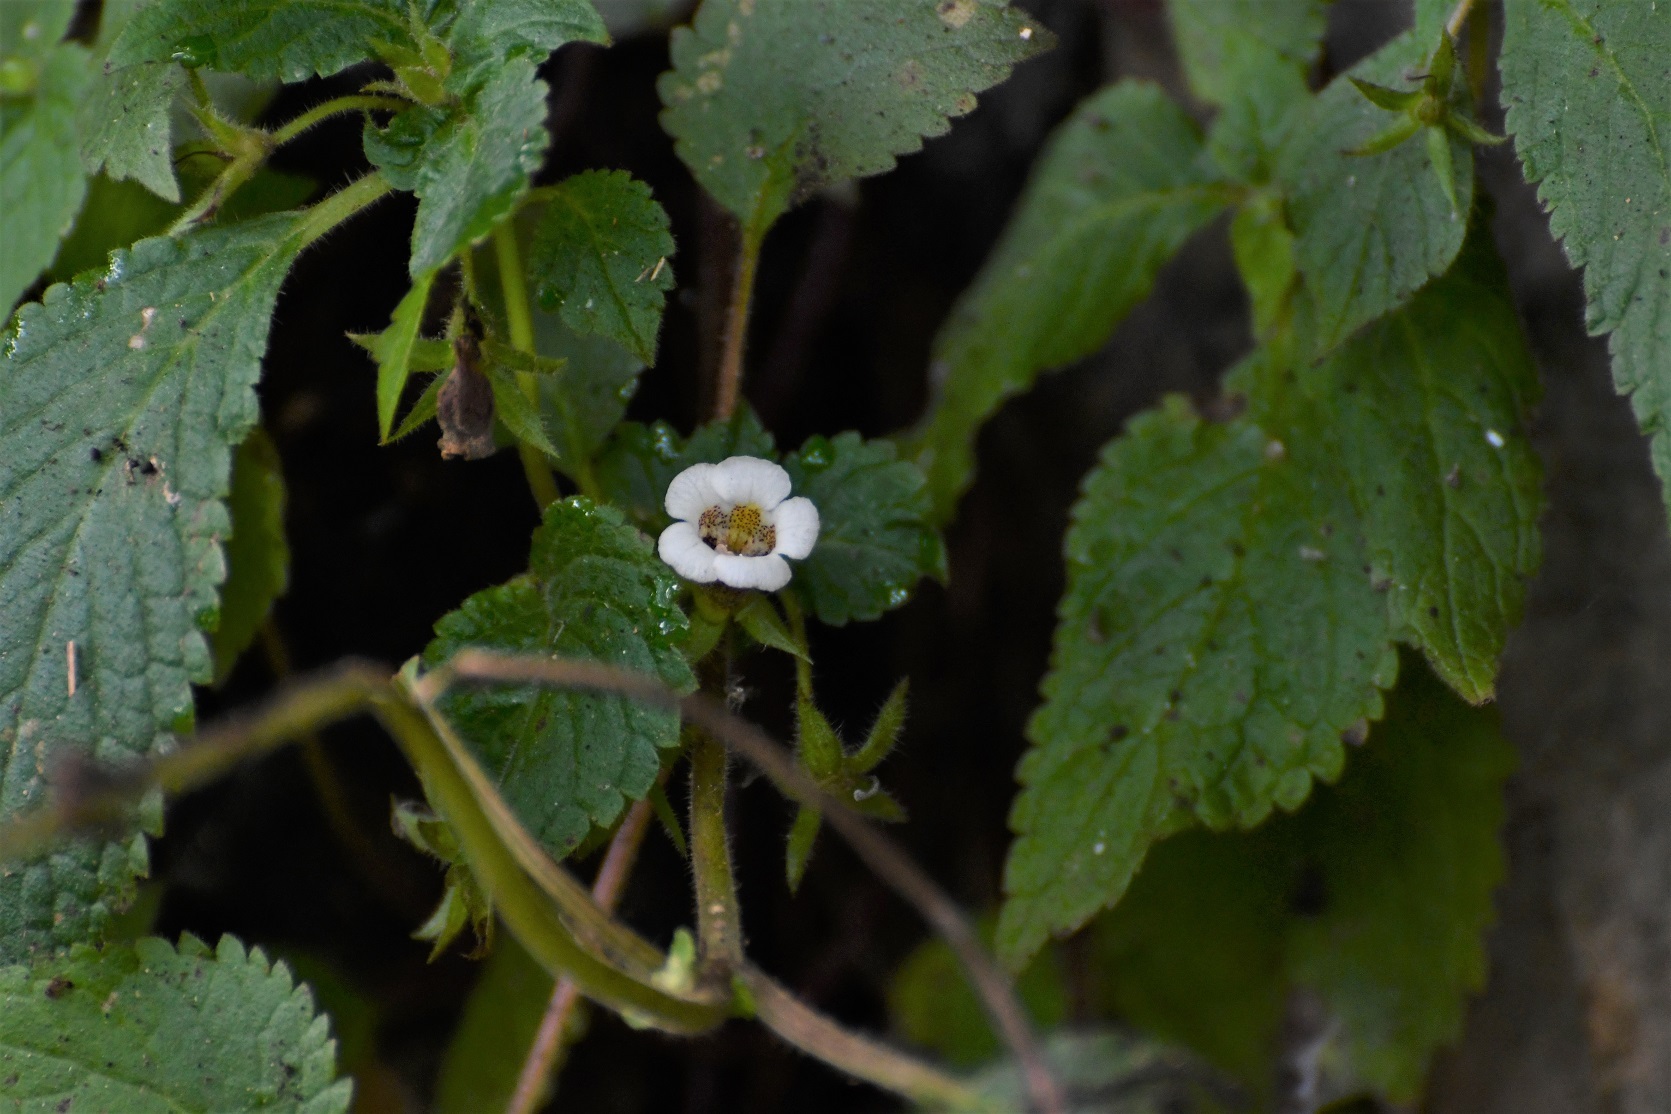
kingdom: Plantae
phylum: Tracheophyta
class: Magnoliopsida
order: Lamiales
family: Gesneriaceae
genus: Achimenes
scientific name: Achimenes misera
